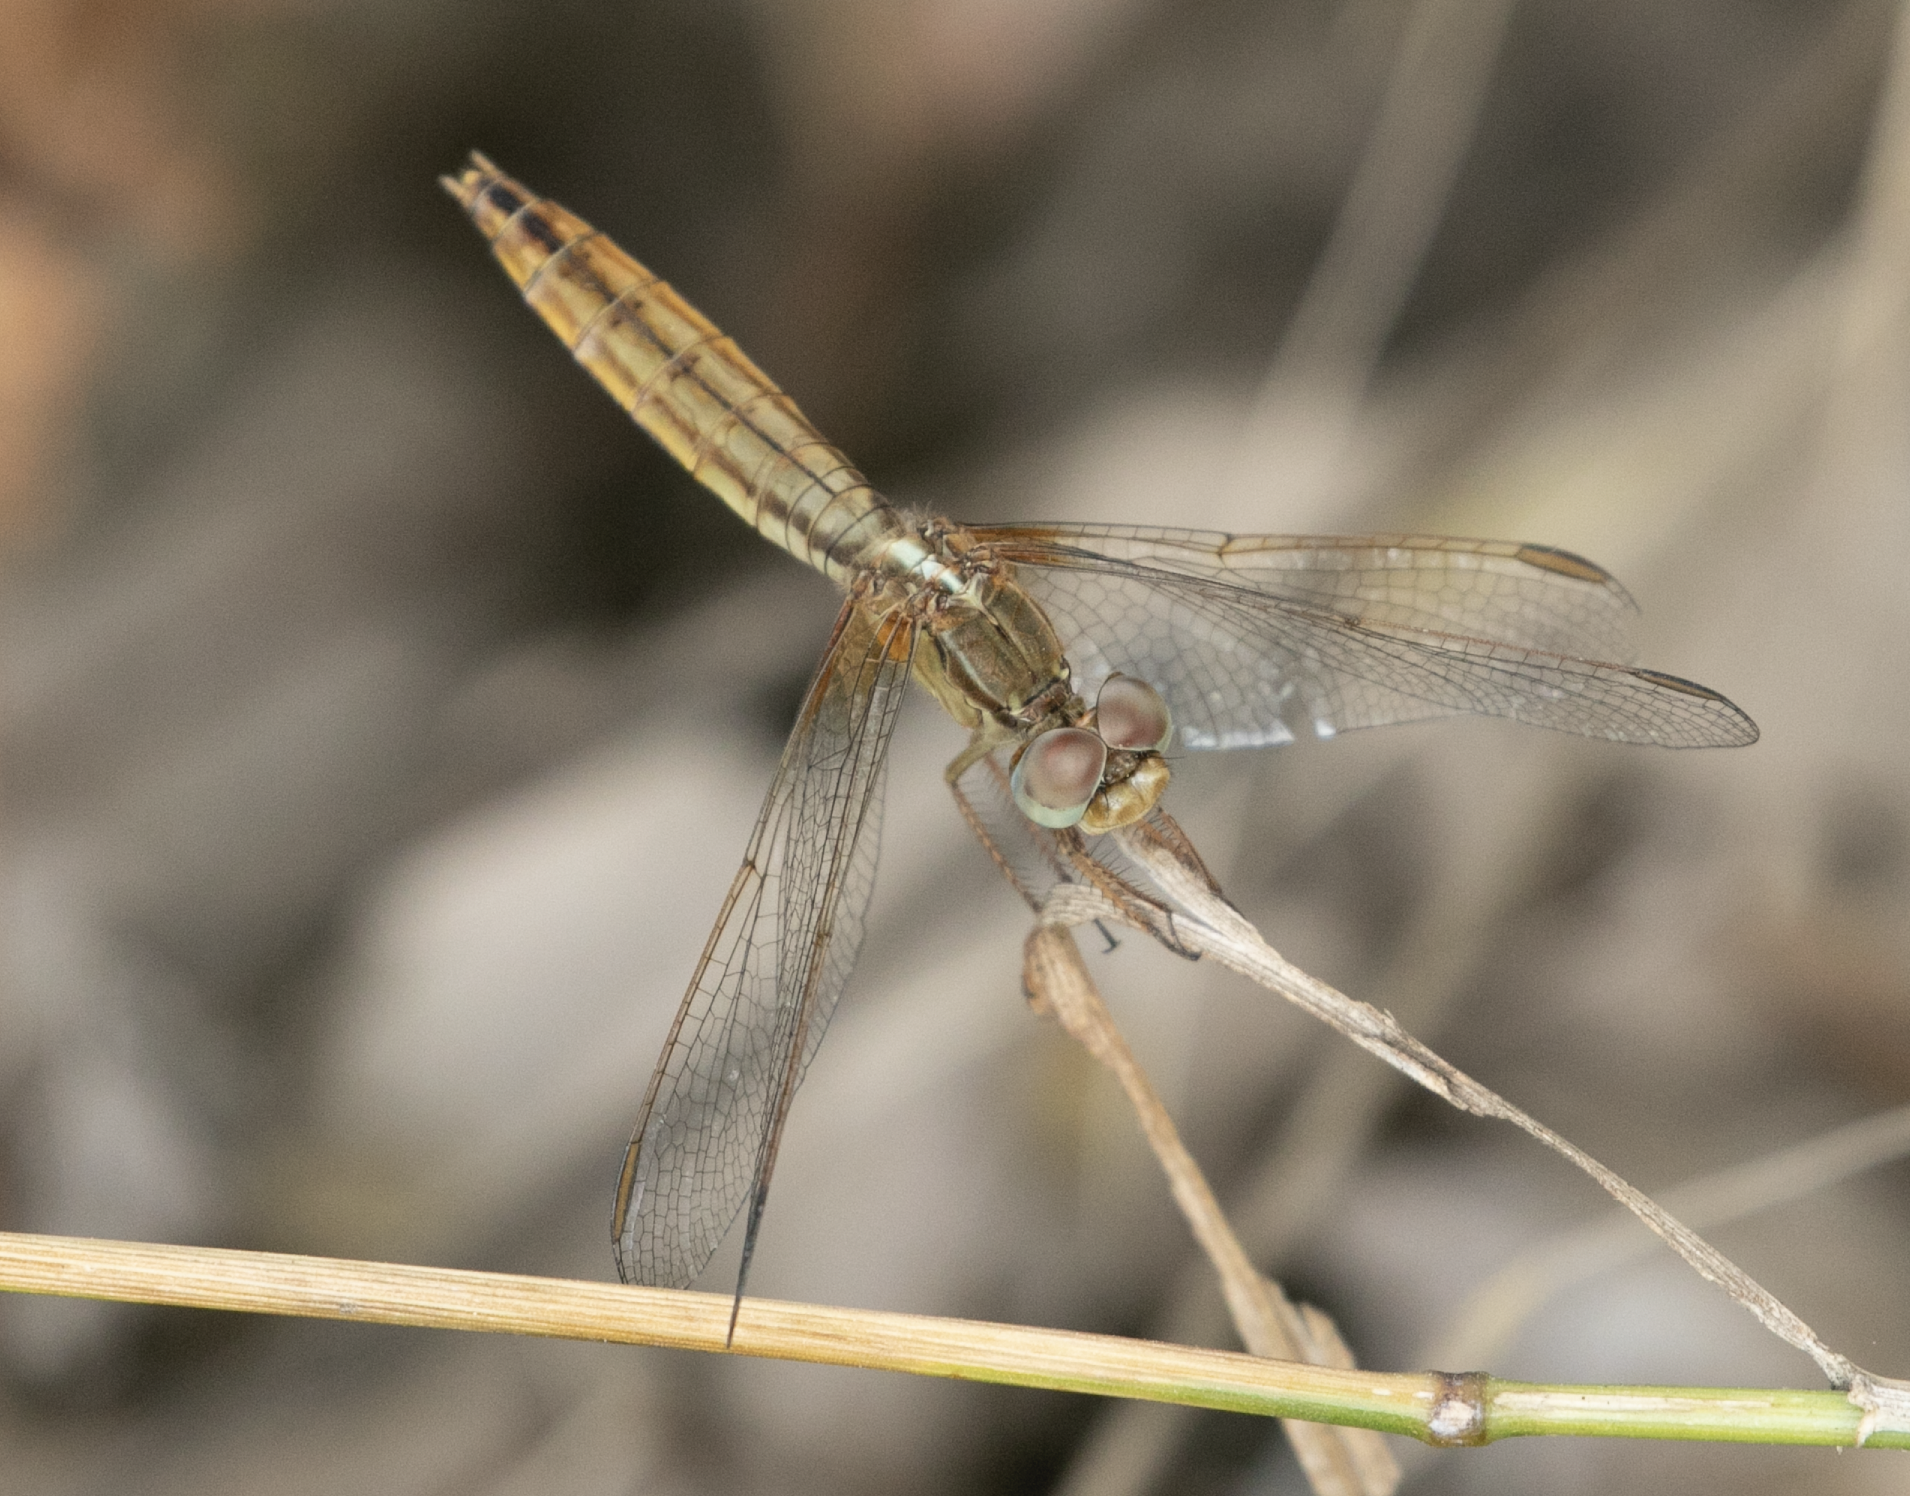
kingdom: Animalia
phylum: Arthropoda
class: Insecta
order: Odonata
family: Libellulidae
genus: Crocothemis
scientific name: Crocothemis erythraea
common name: Scarlet dragonfly
